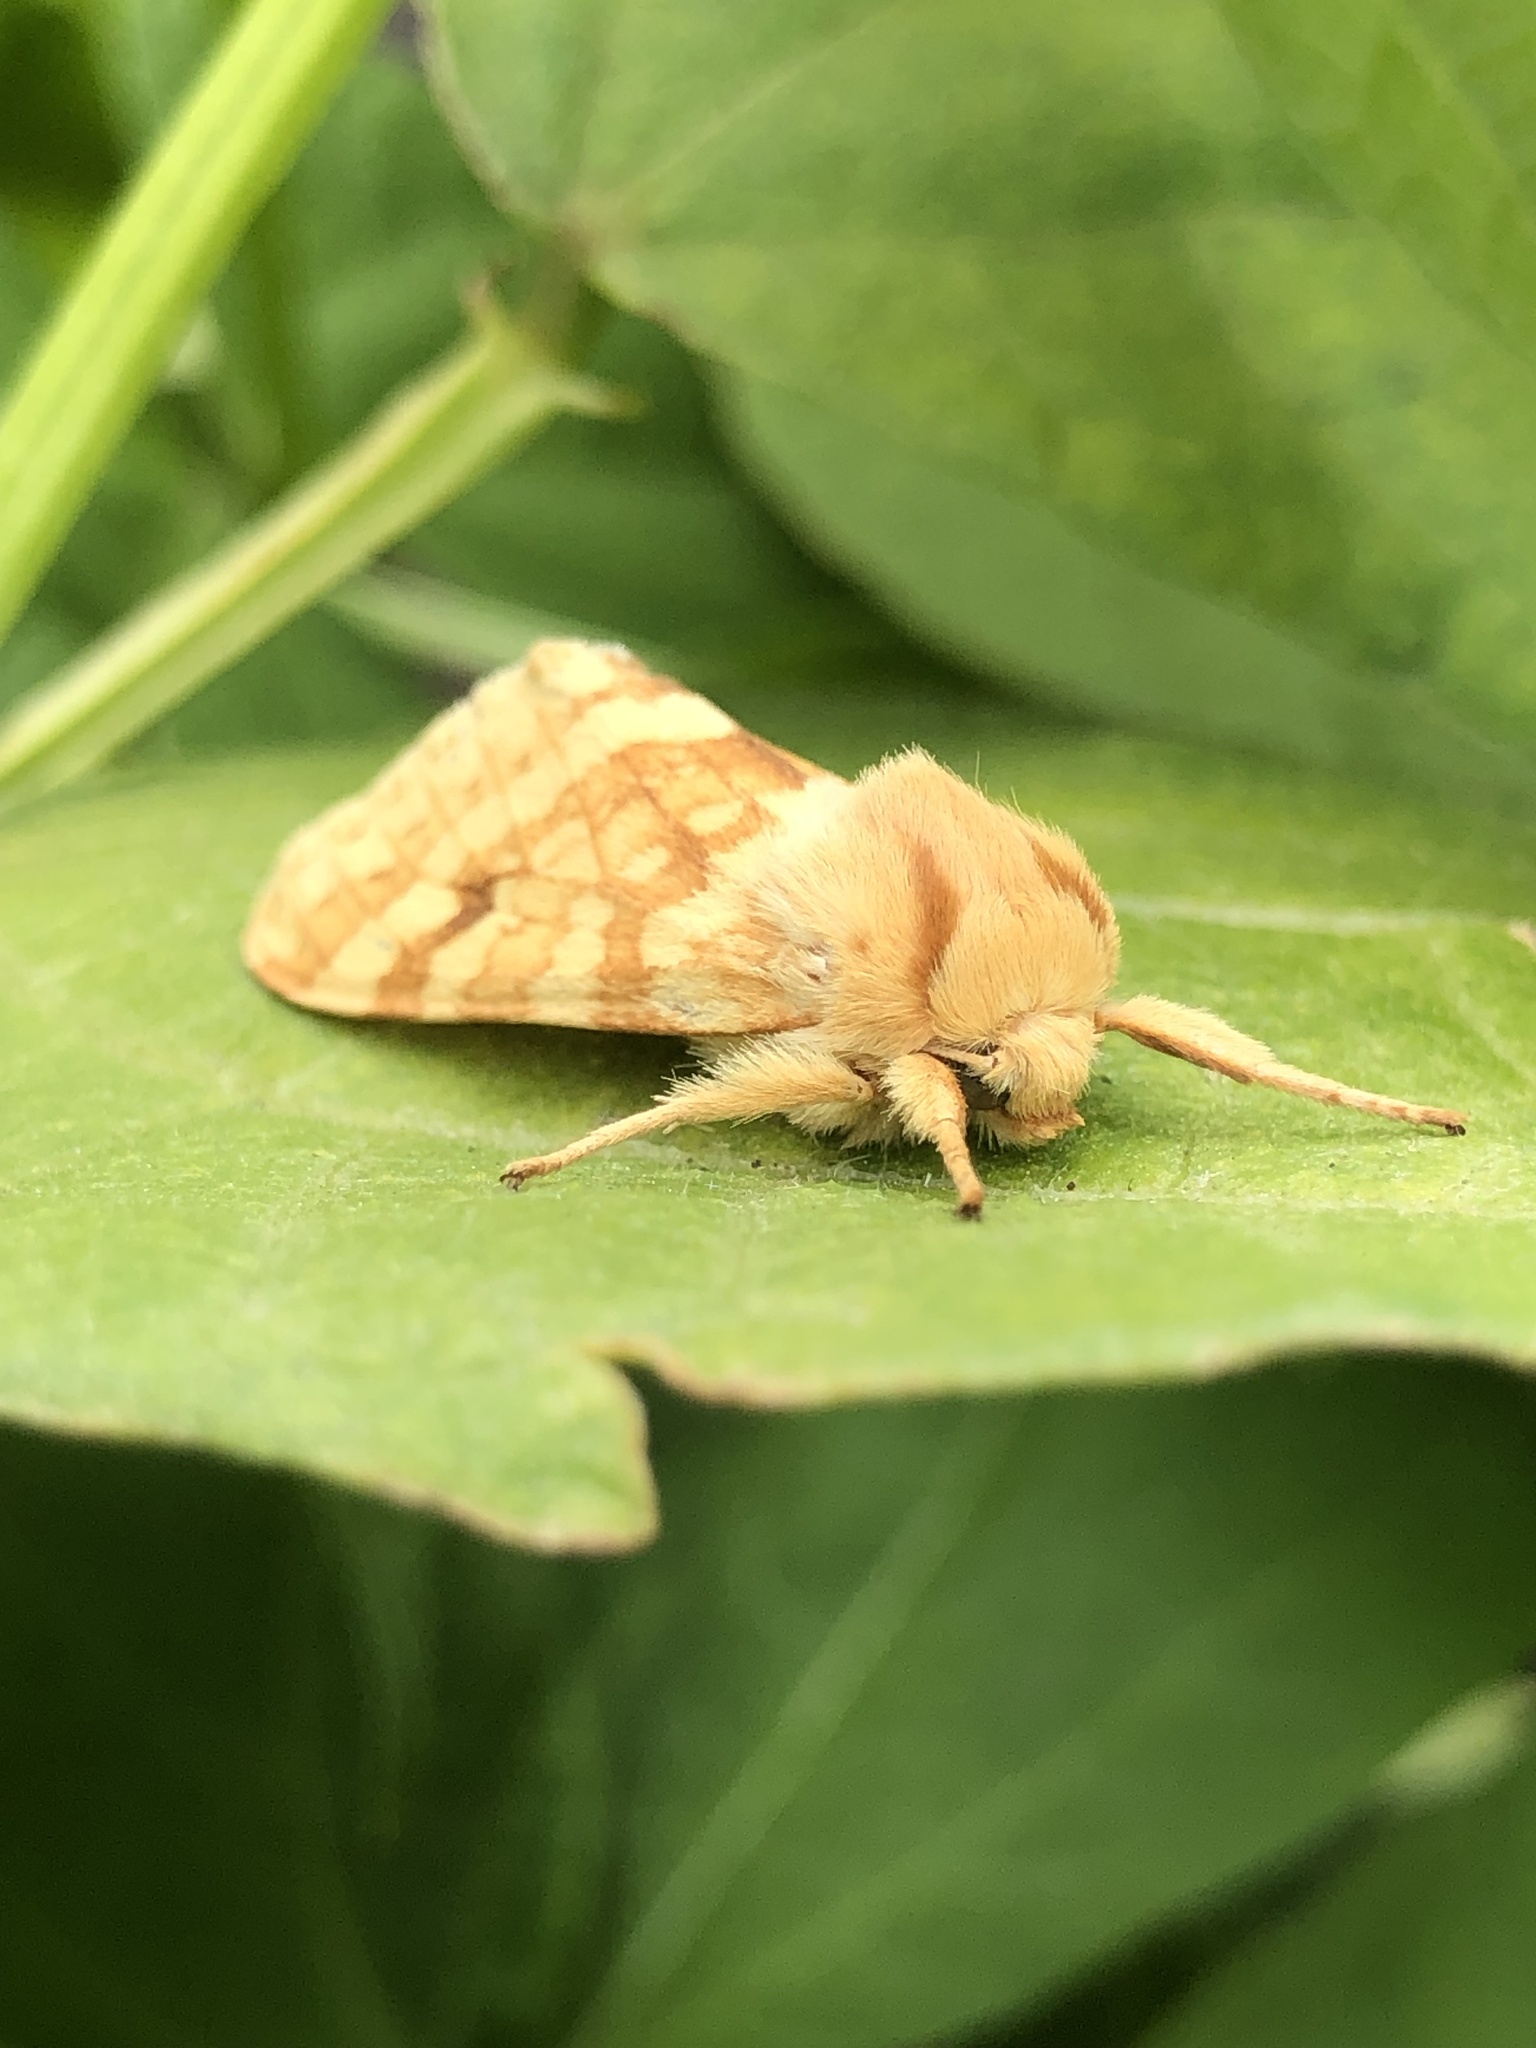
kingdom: Animalia
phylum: Arthropoda
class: Insecta
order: Lepidoptera
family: Erebidae
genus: Lophocampa
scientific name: Lophocampa maculata
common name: Spotted tussock moth
